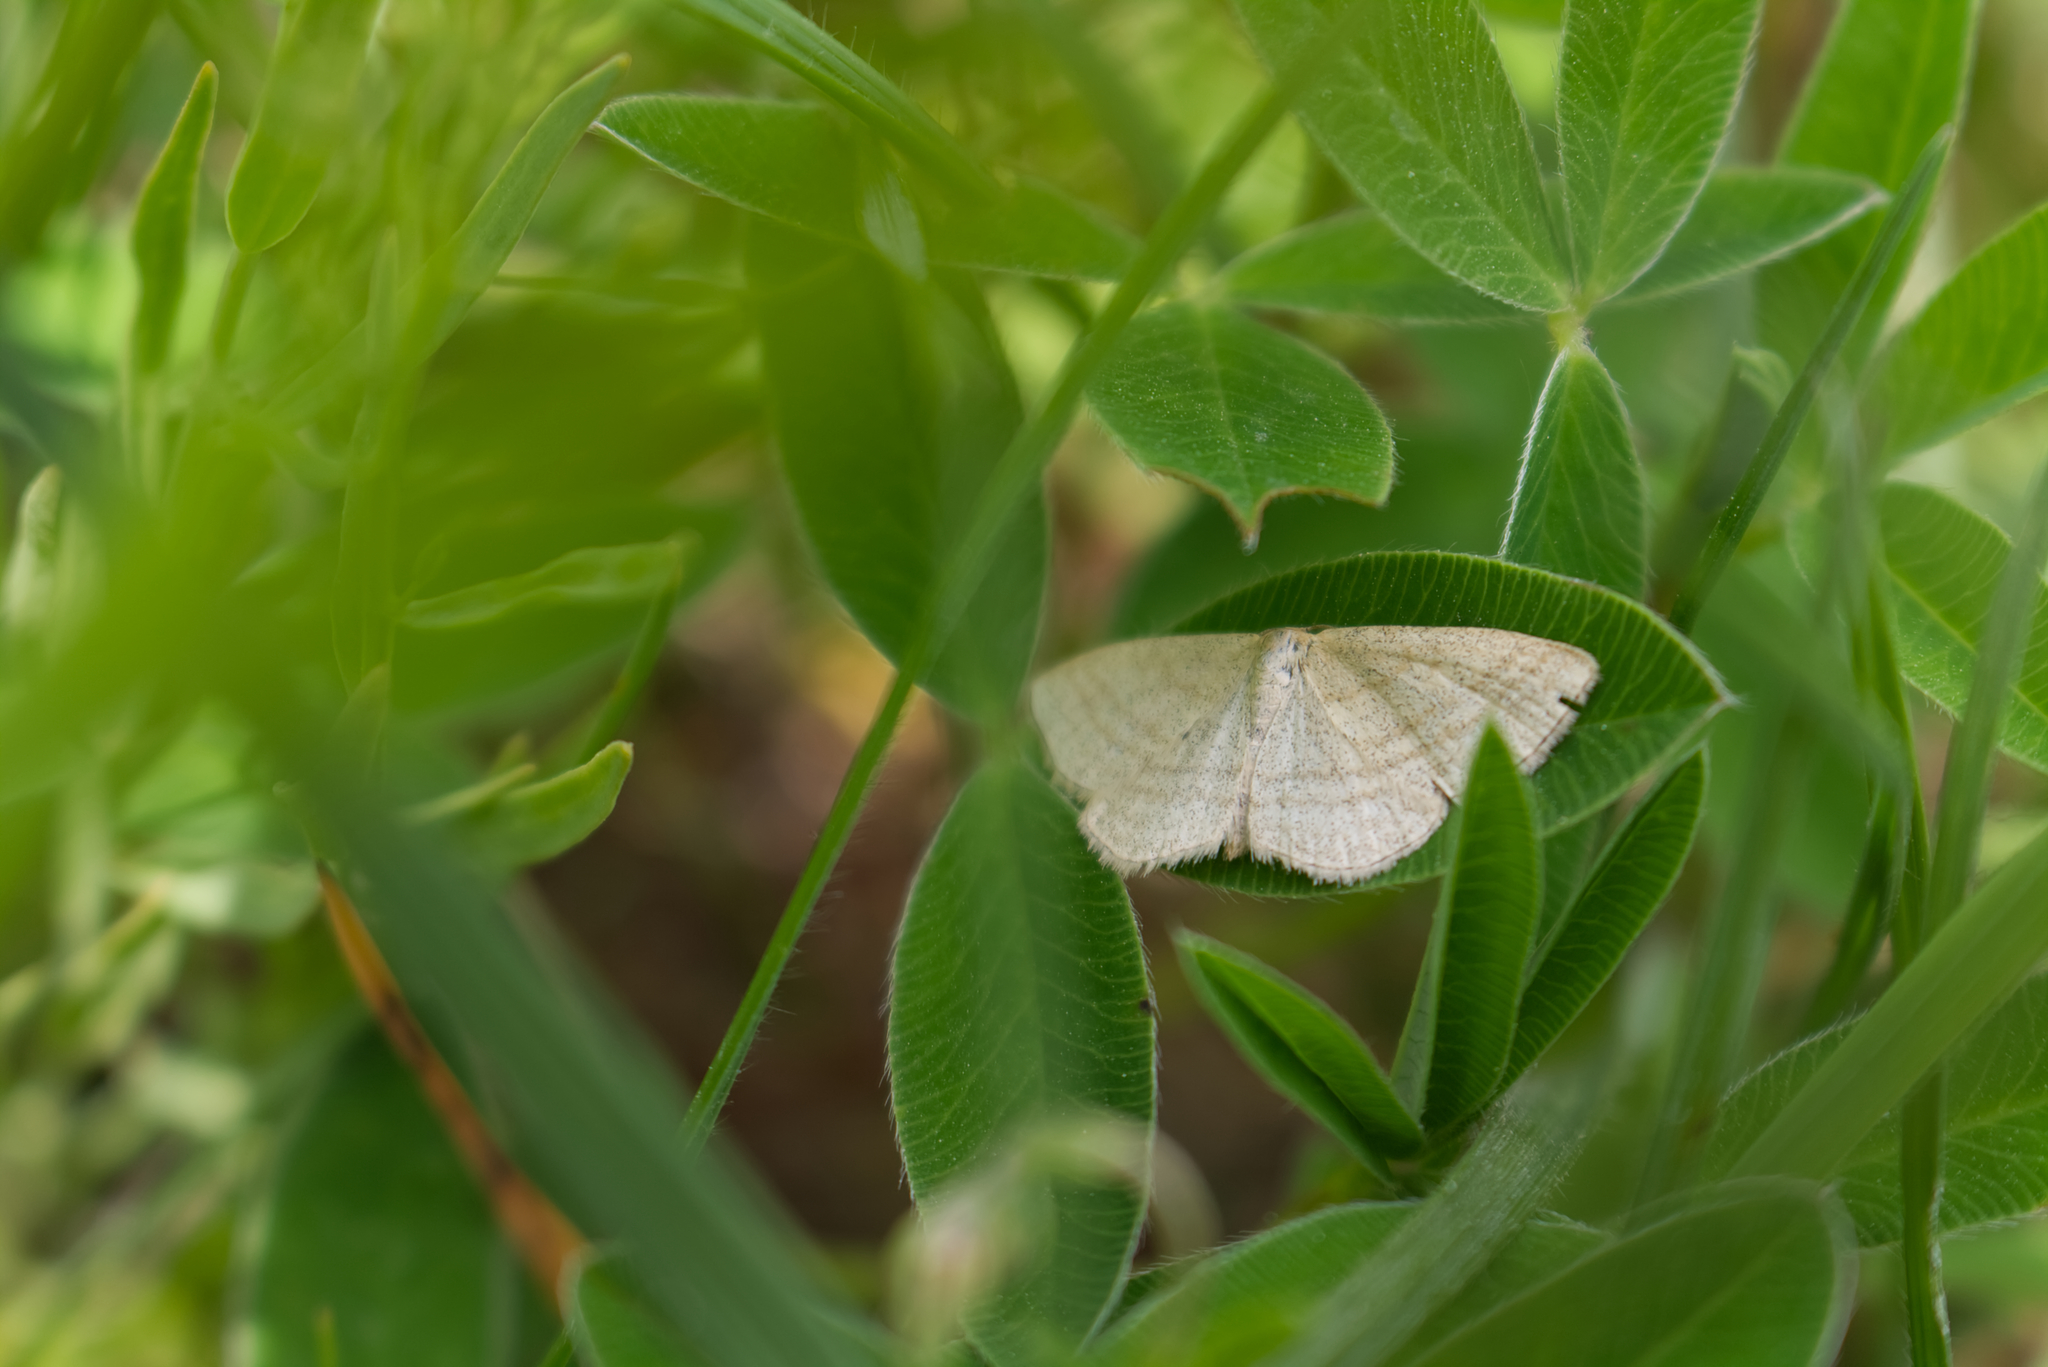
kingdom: Animalia
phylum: Arthropoda
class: Insecta
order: Lepidoptera
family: Geometridae
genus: Scopula
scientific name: Scopula virgulata
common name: Streaked wave
